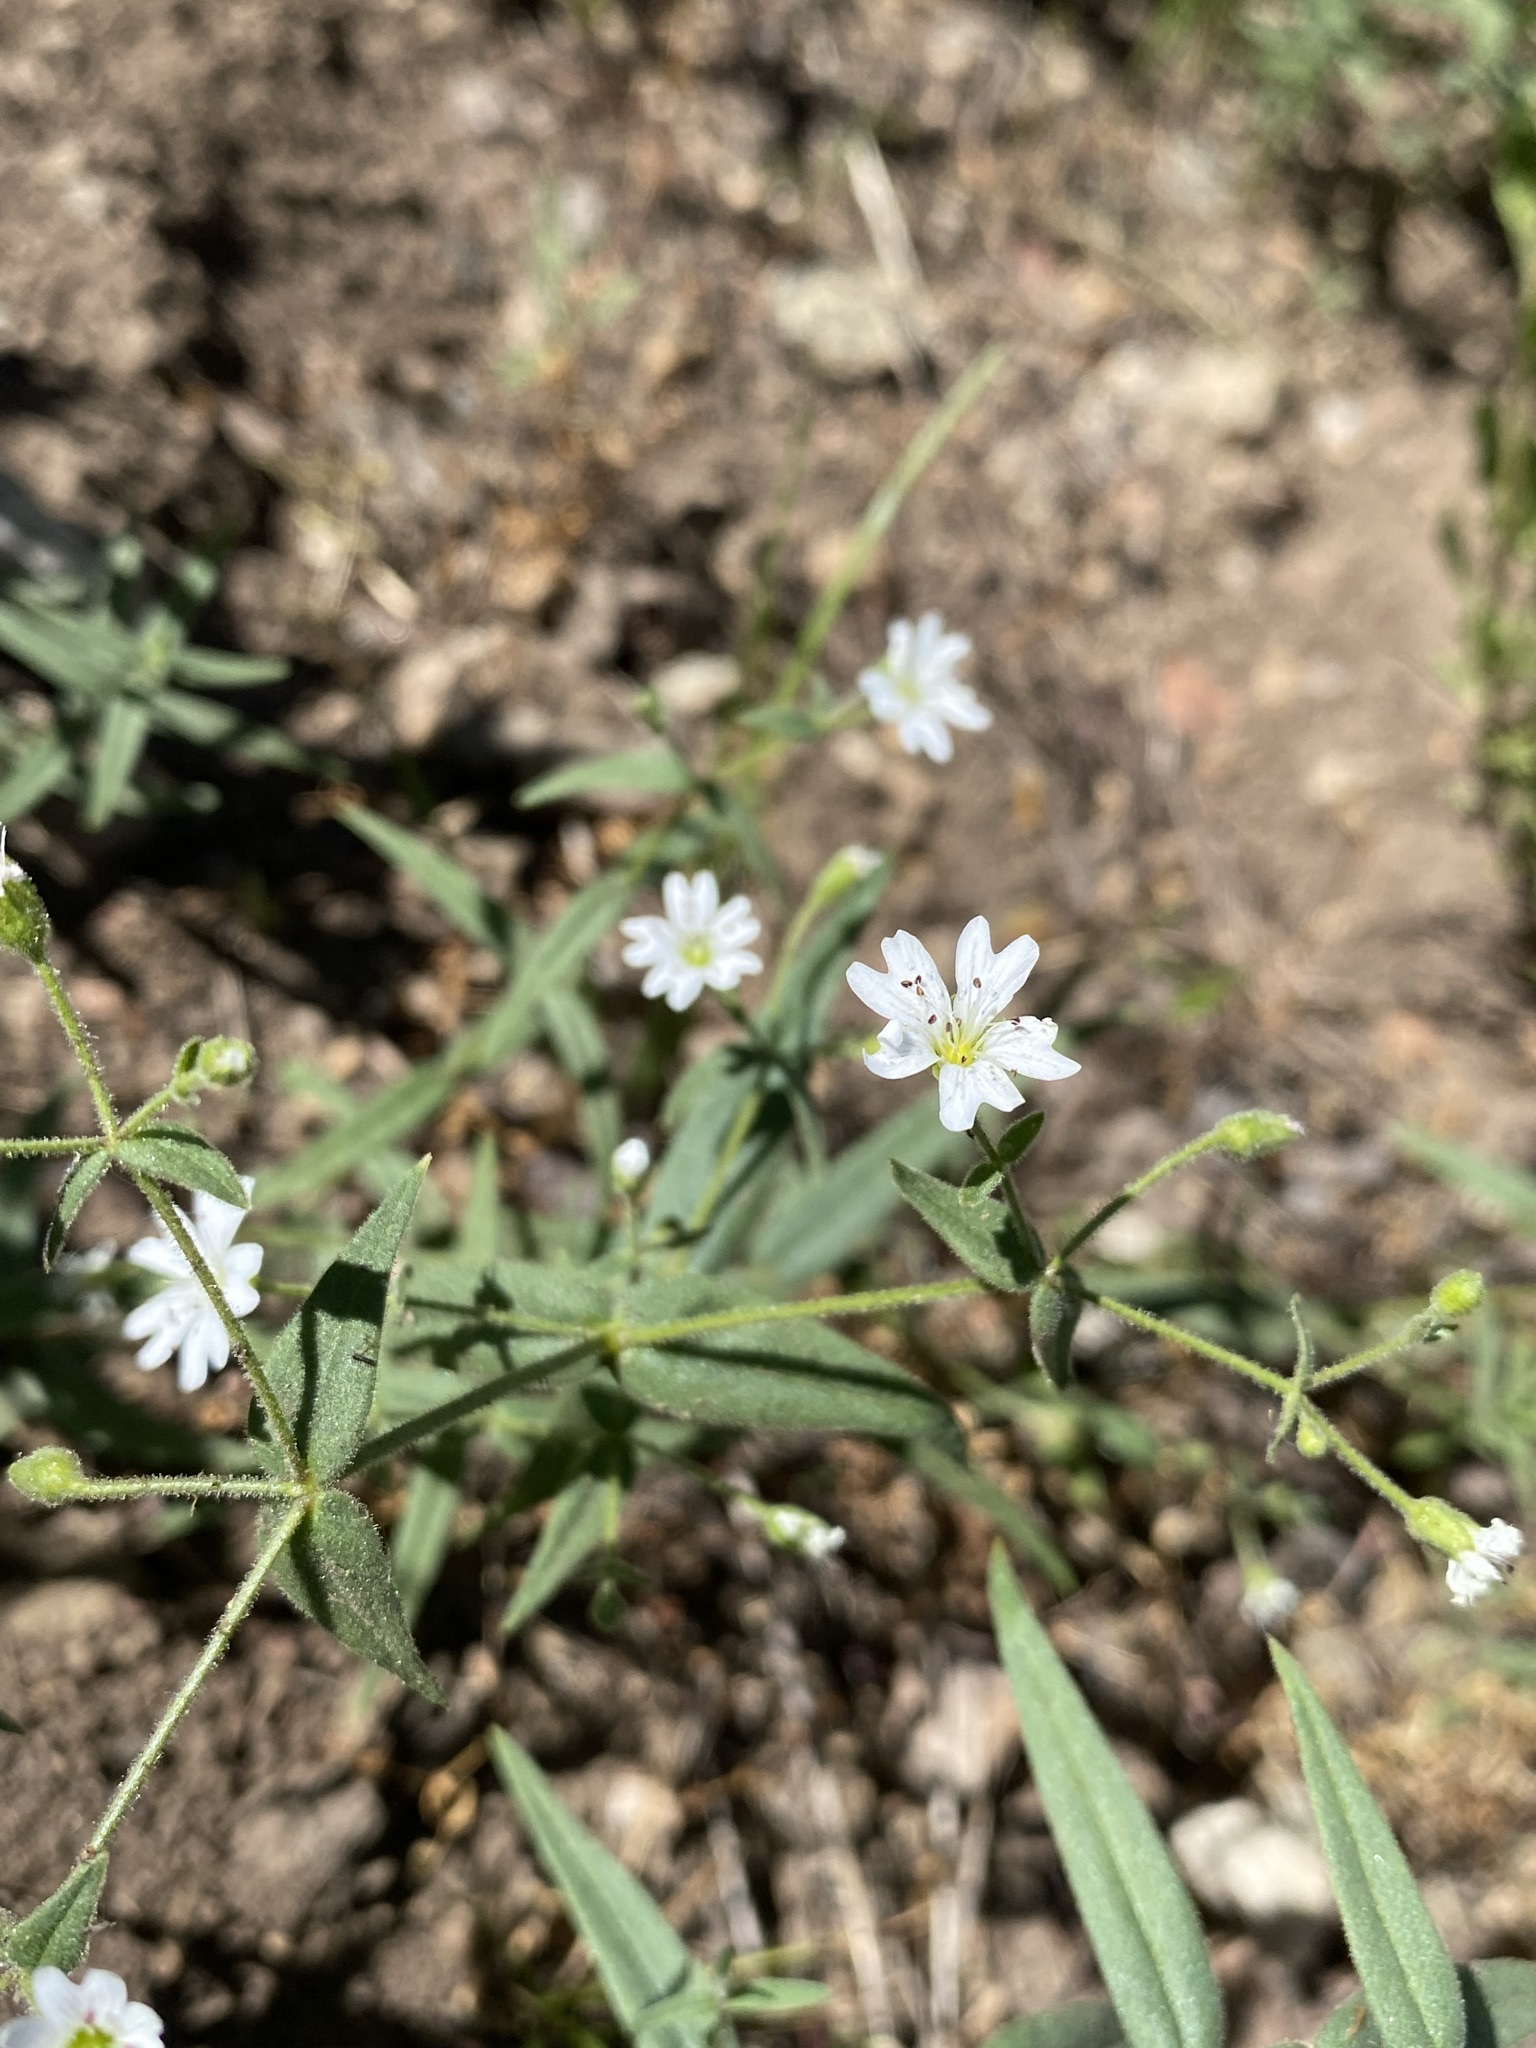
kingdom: Plantae
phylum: Tracheophyta
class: Magnoliopsida
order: Caryophyllales
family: Caryophyllaceae
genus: Schizotechium
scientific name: Schizotechium jamesianum
